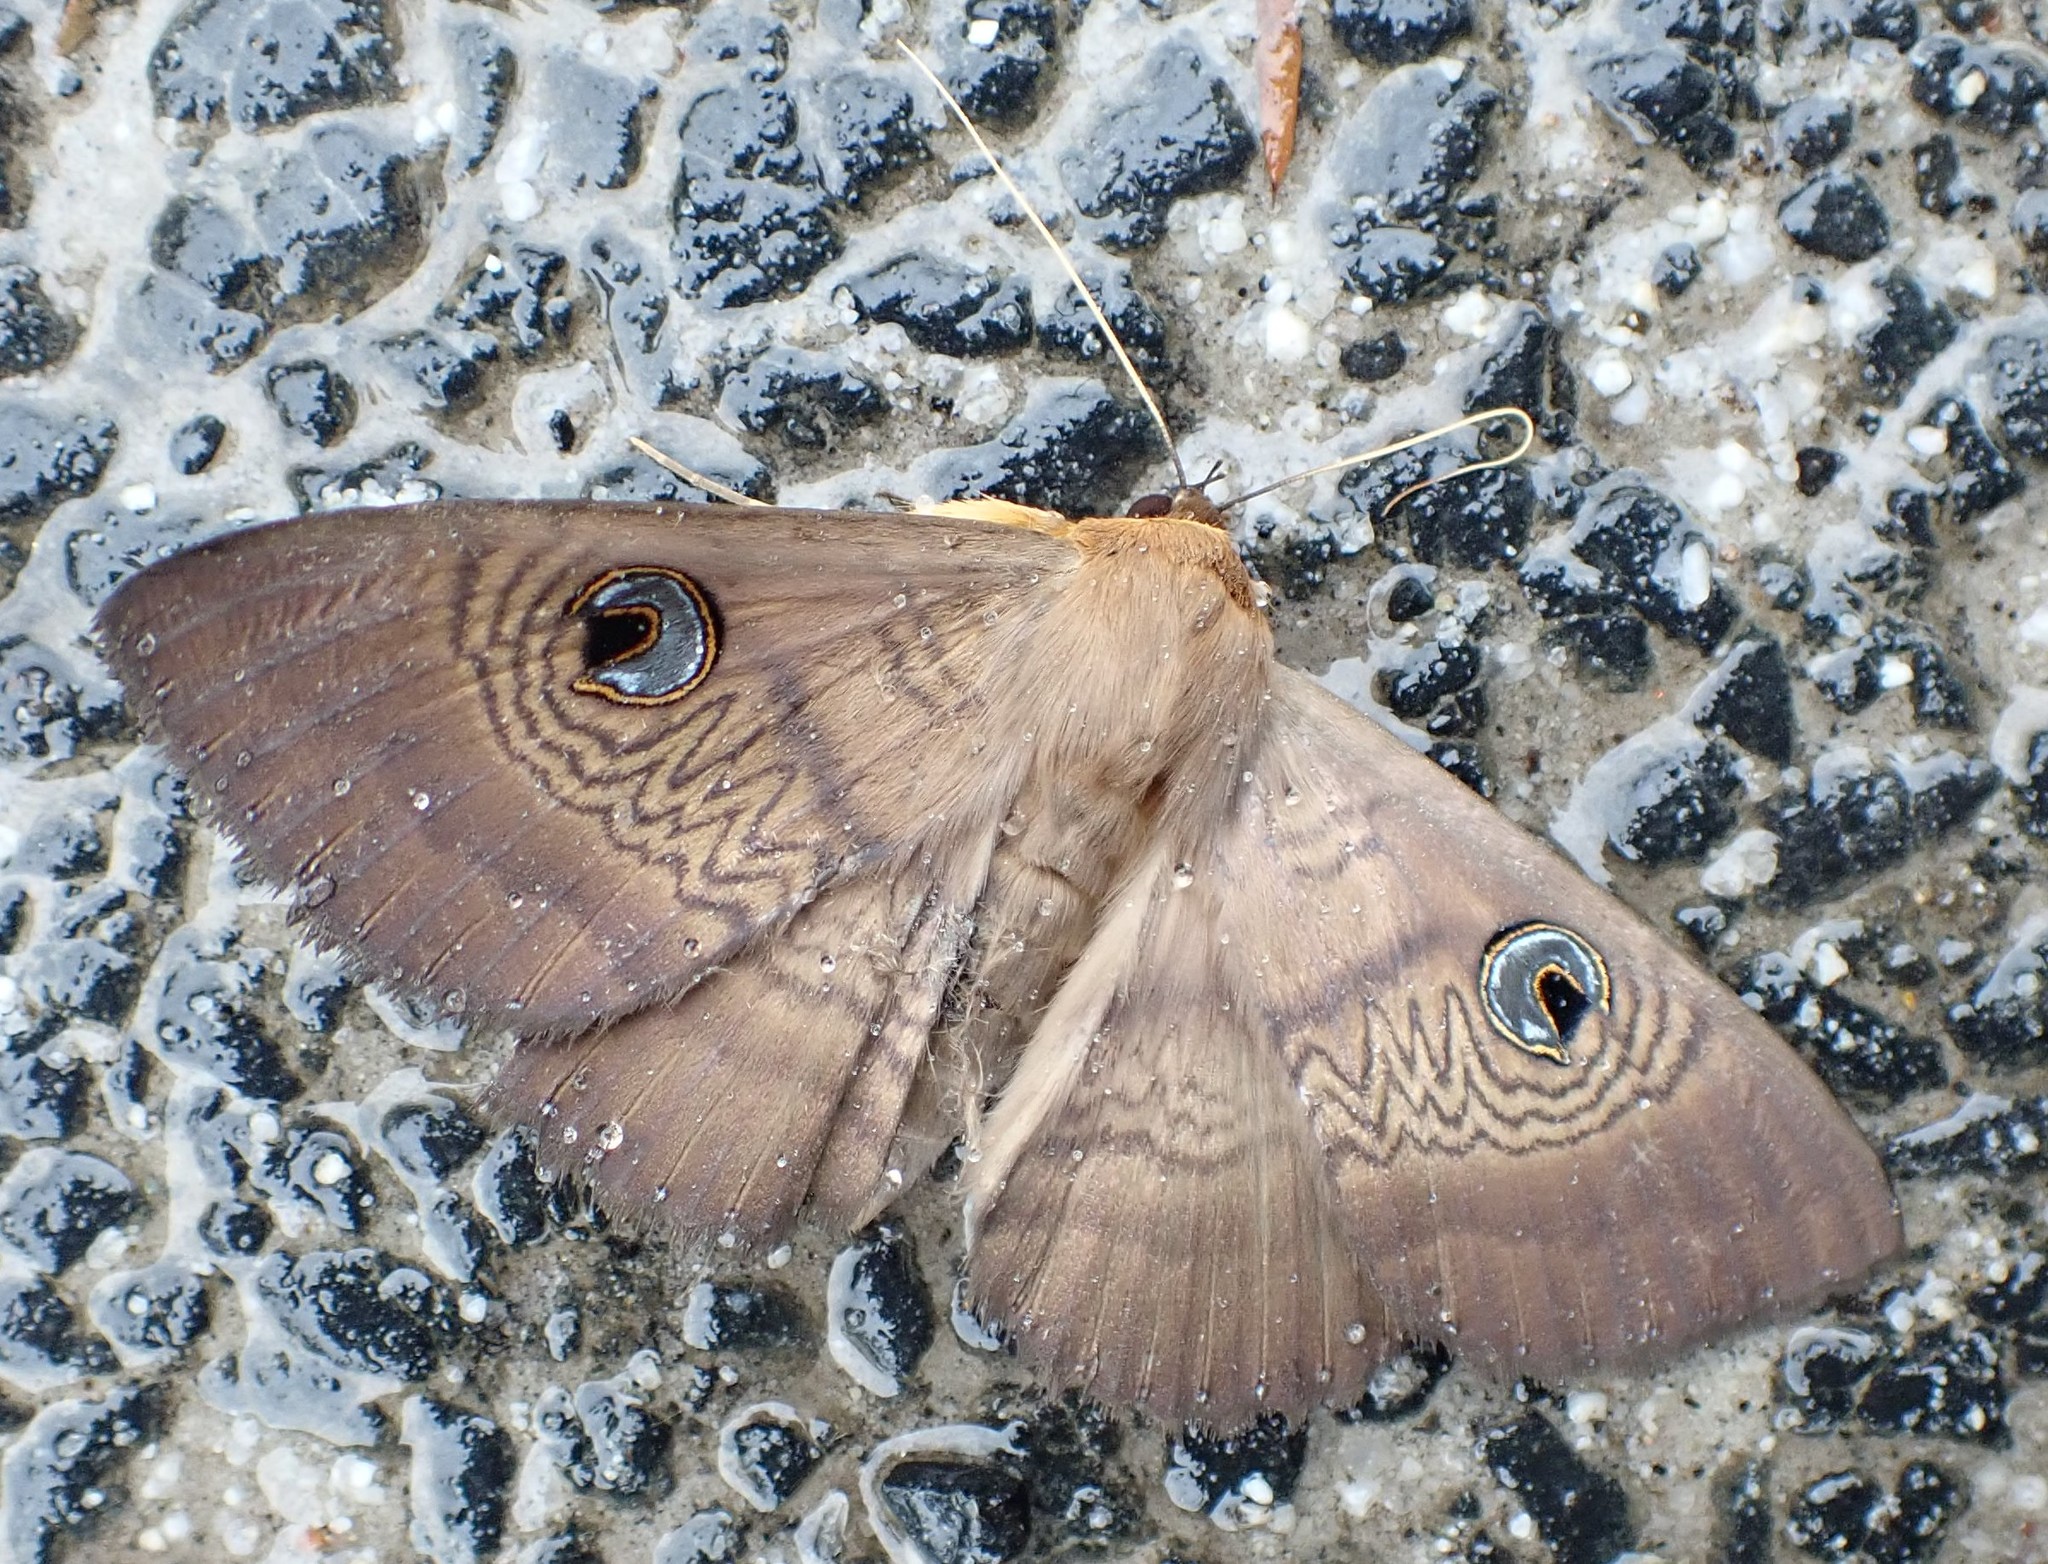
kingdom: Animalia
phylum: Arthropoda
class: Insecta
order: Lepidoptera
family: Erebidae
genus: Dasypodia
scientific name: Dasypodia selenophora
